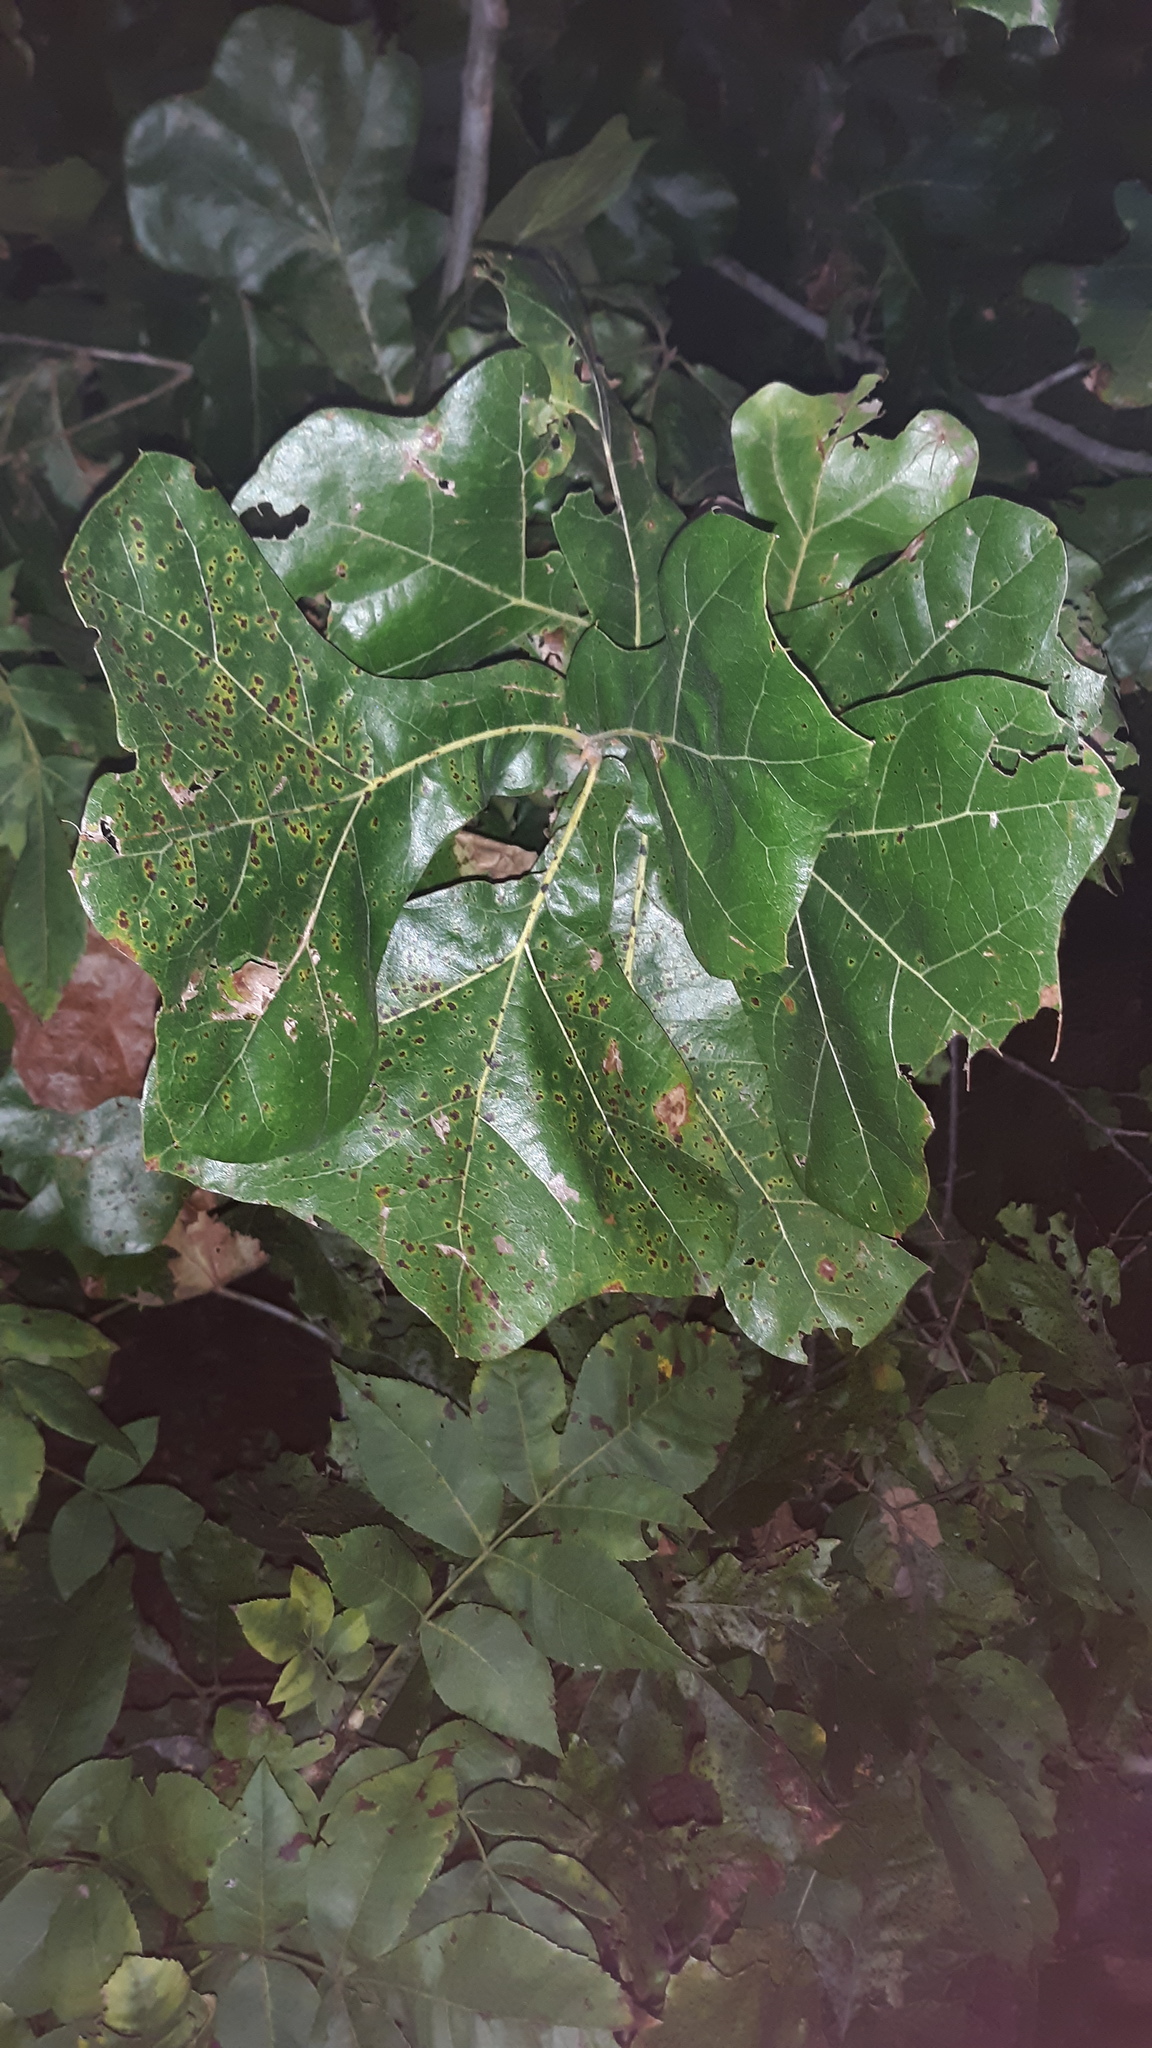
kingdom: Plantae
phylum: Tracheophyta
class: Magnoliopsida
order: Fagales
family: Fagaceae
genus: Quercus
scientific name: Quercus marilandica
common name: Blackjack oak
